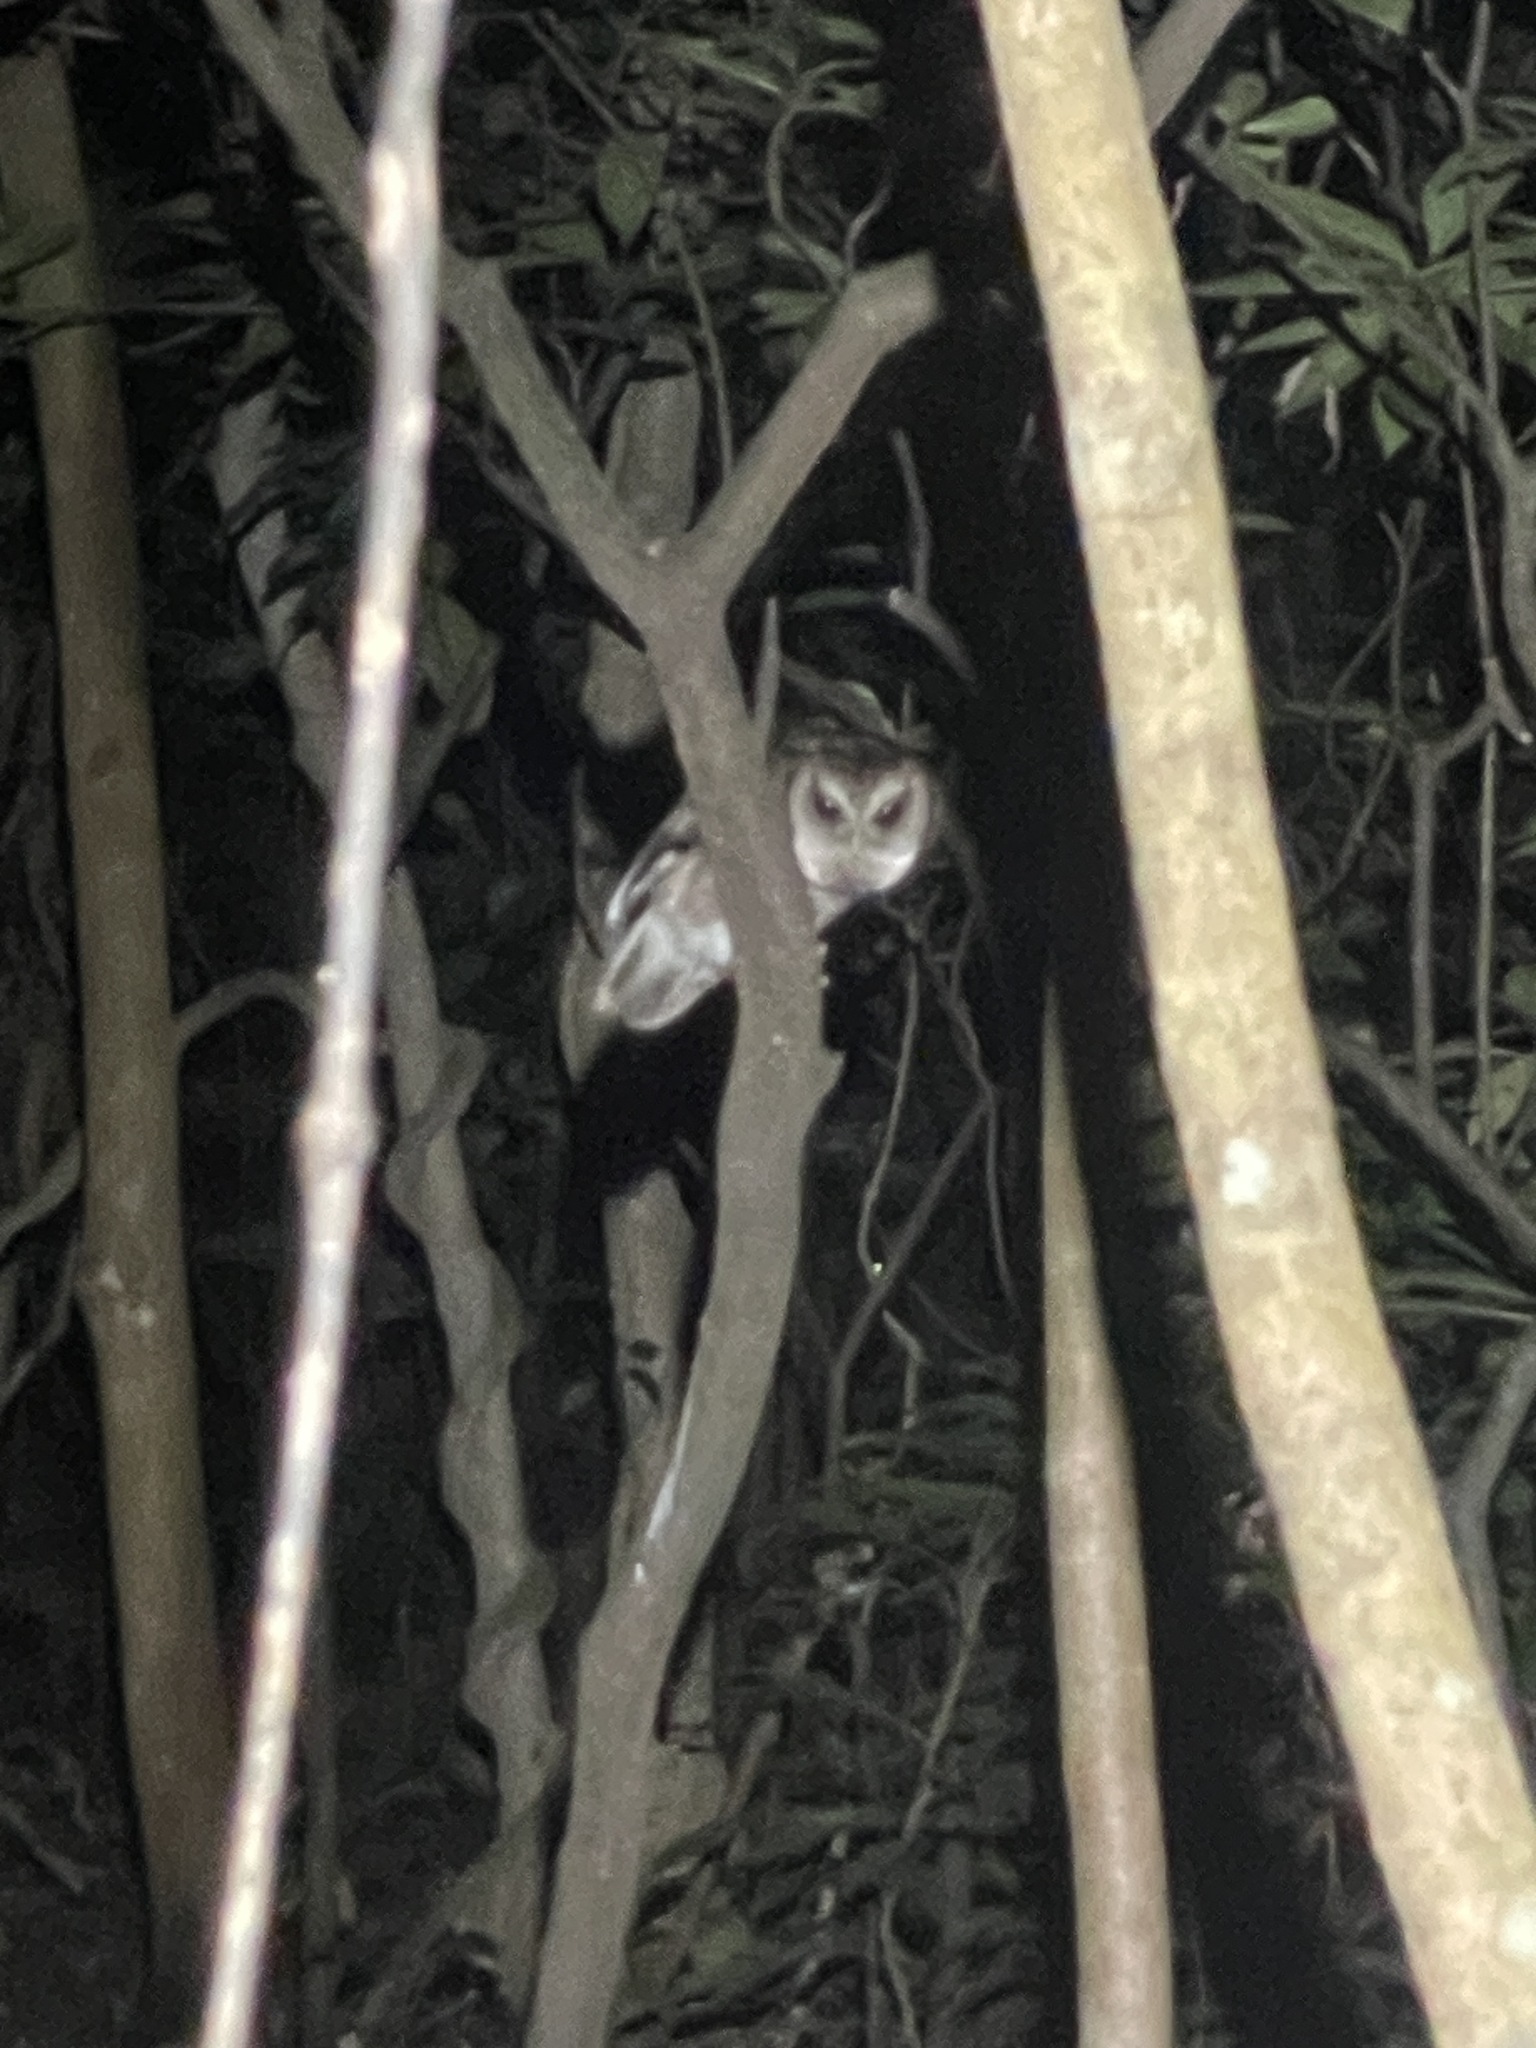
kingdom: Animalia
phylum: Chordata
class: Aves
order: Strigiformes
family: Strigidae
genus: Otus
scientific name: Otus lettia
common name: Collared scops owl
